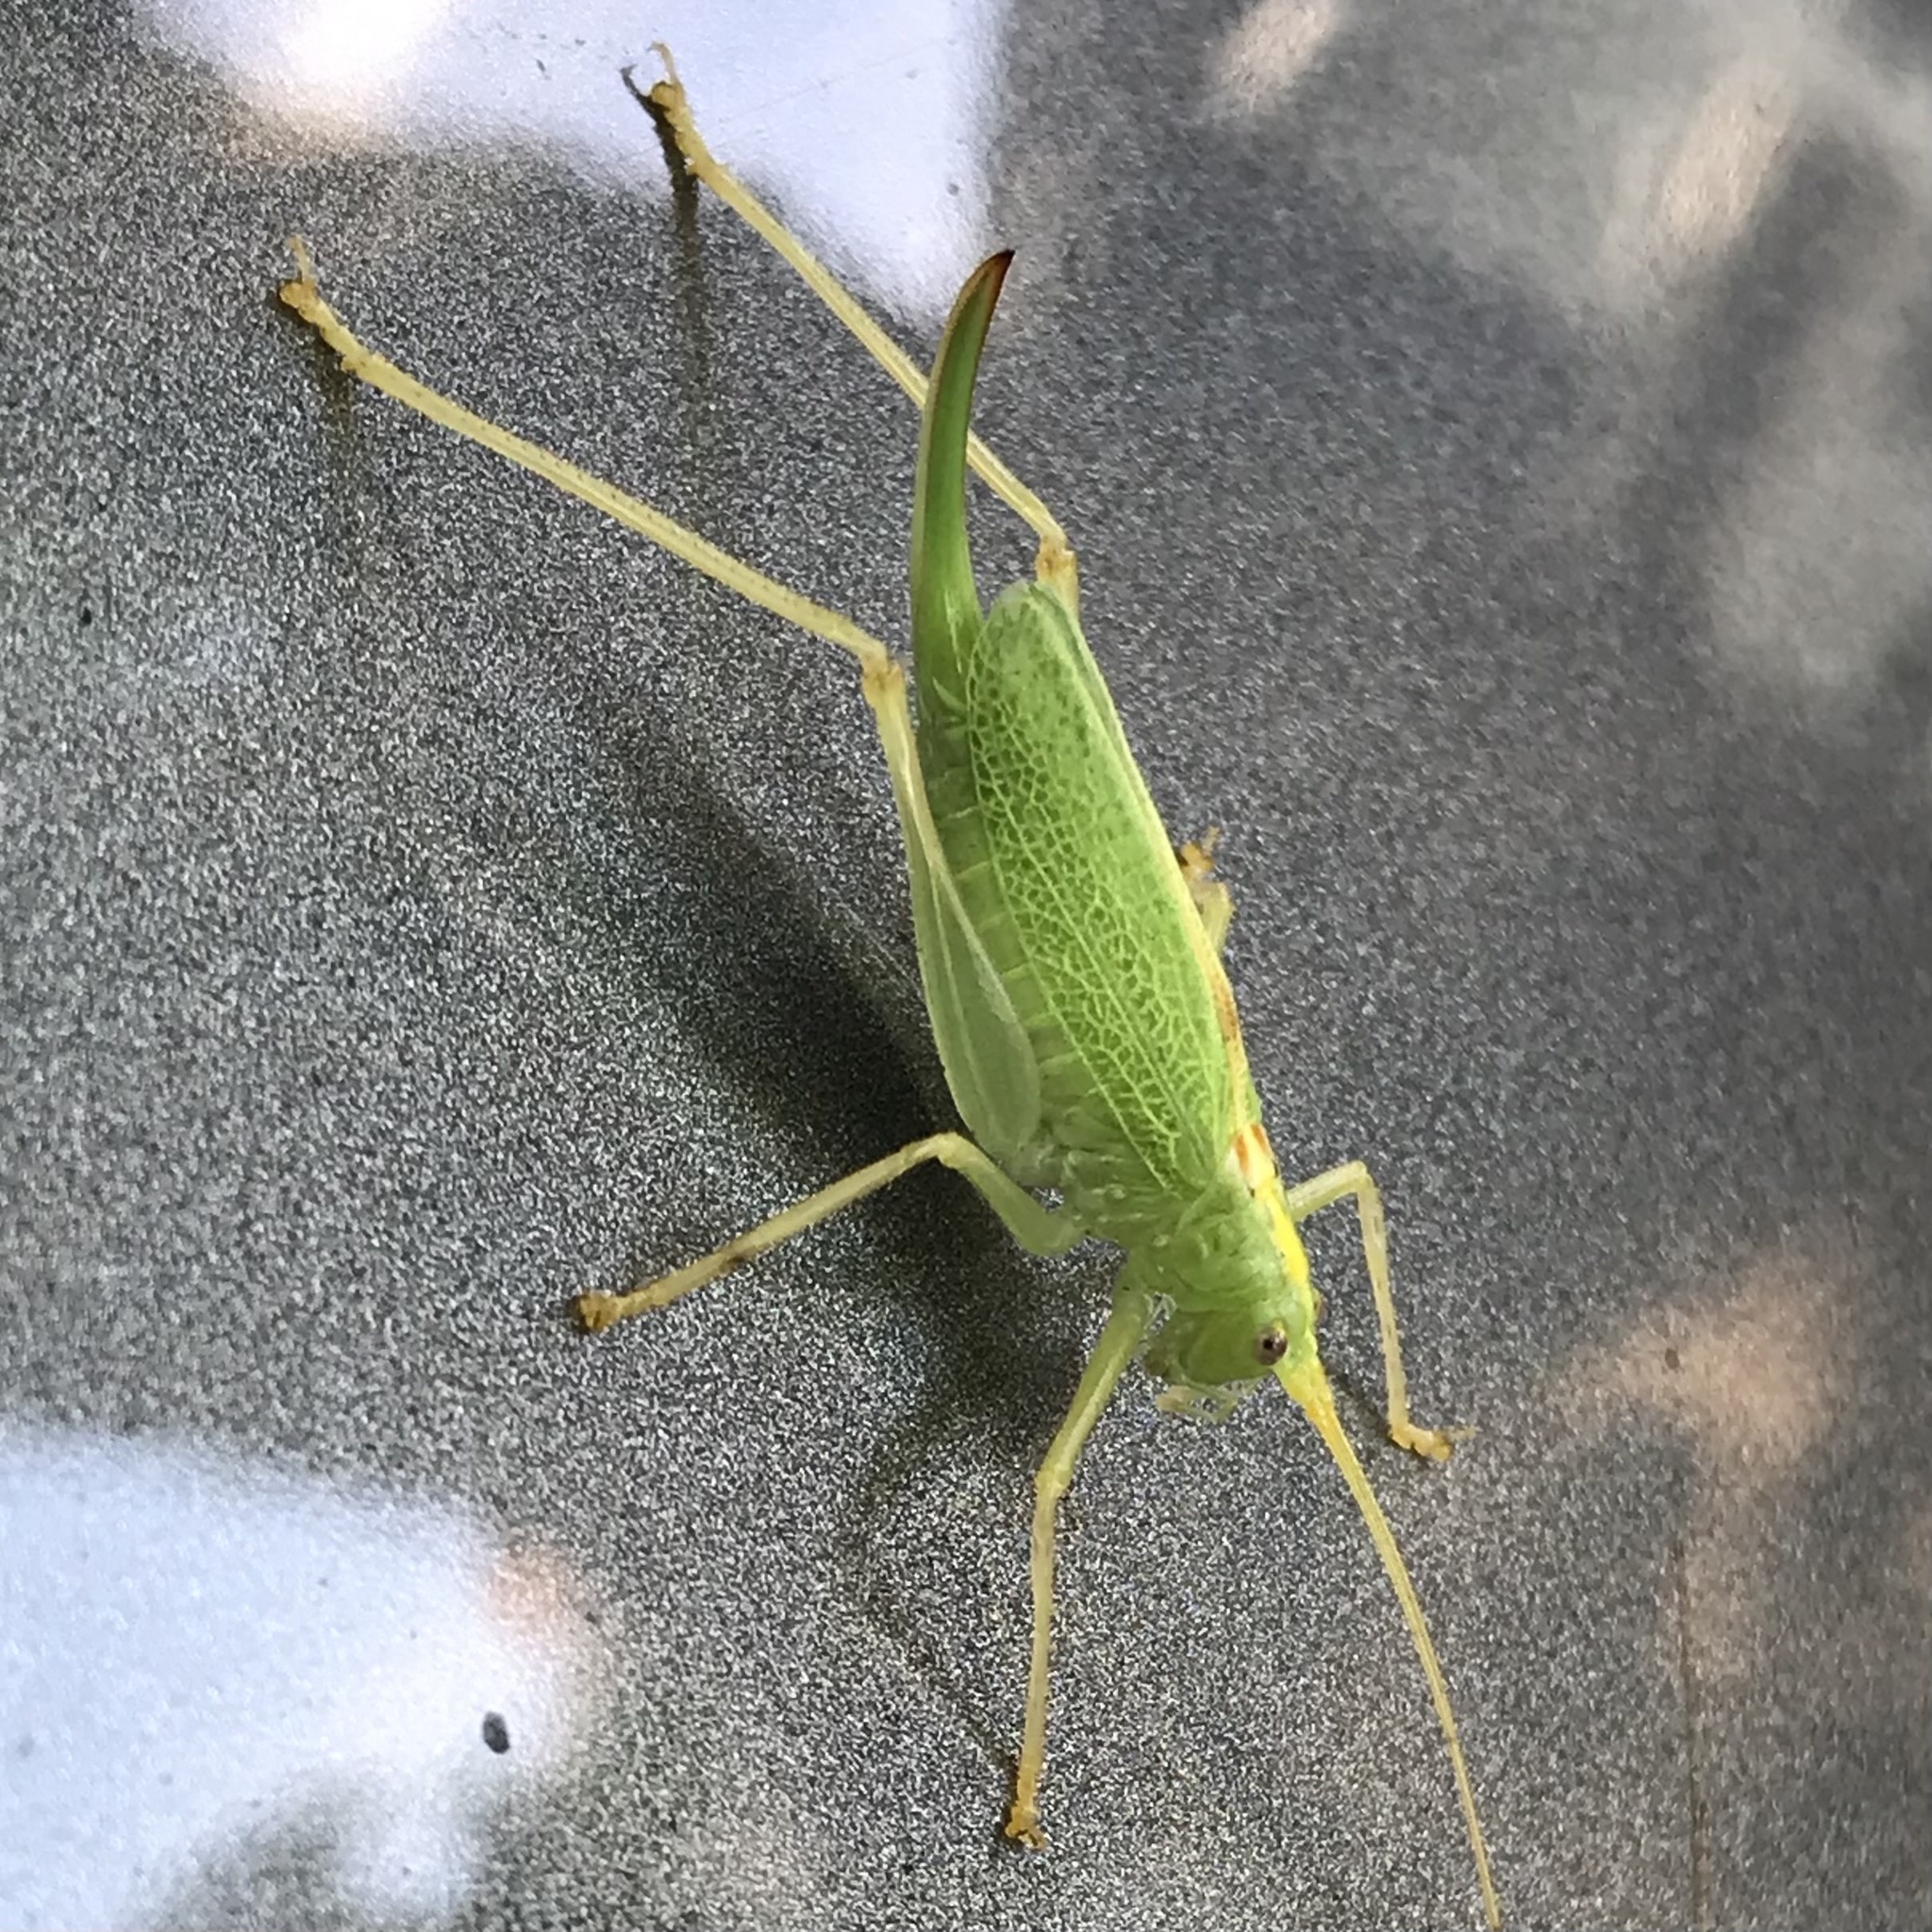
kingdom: Animalia
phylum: Arthropoda
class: Insecta
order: Orthoptera
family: Tettigoniidae
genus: Meconema
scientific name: Meconema thalassinum
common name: Oak bush-cricket
